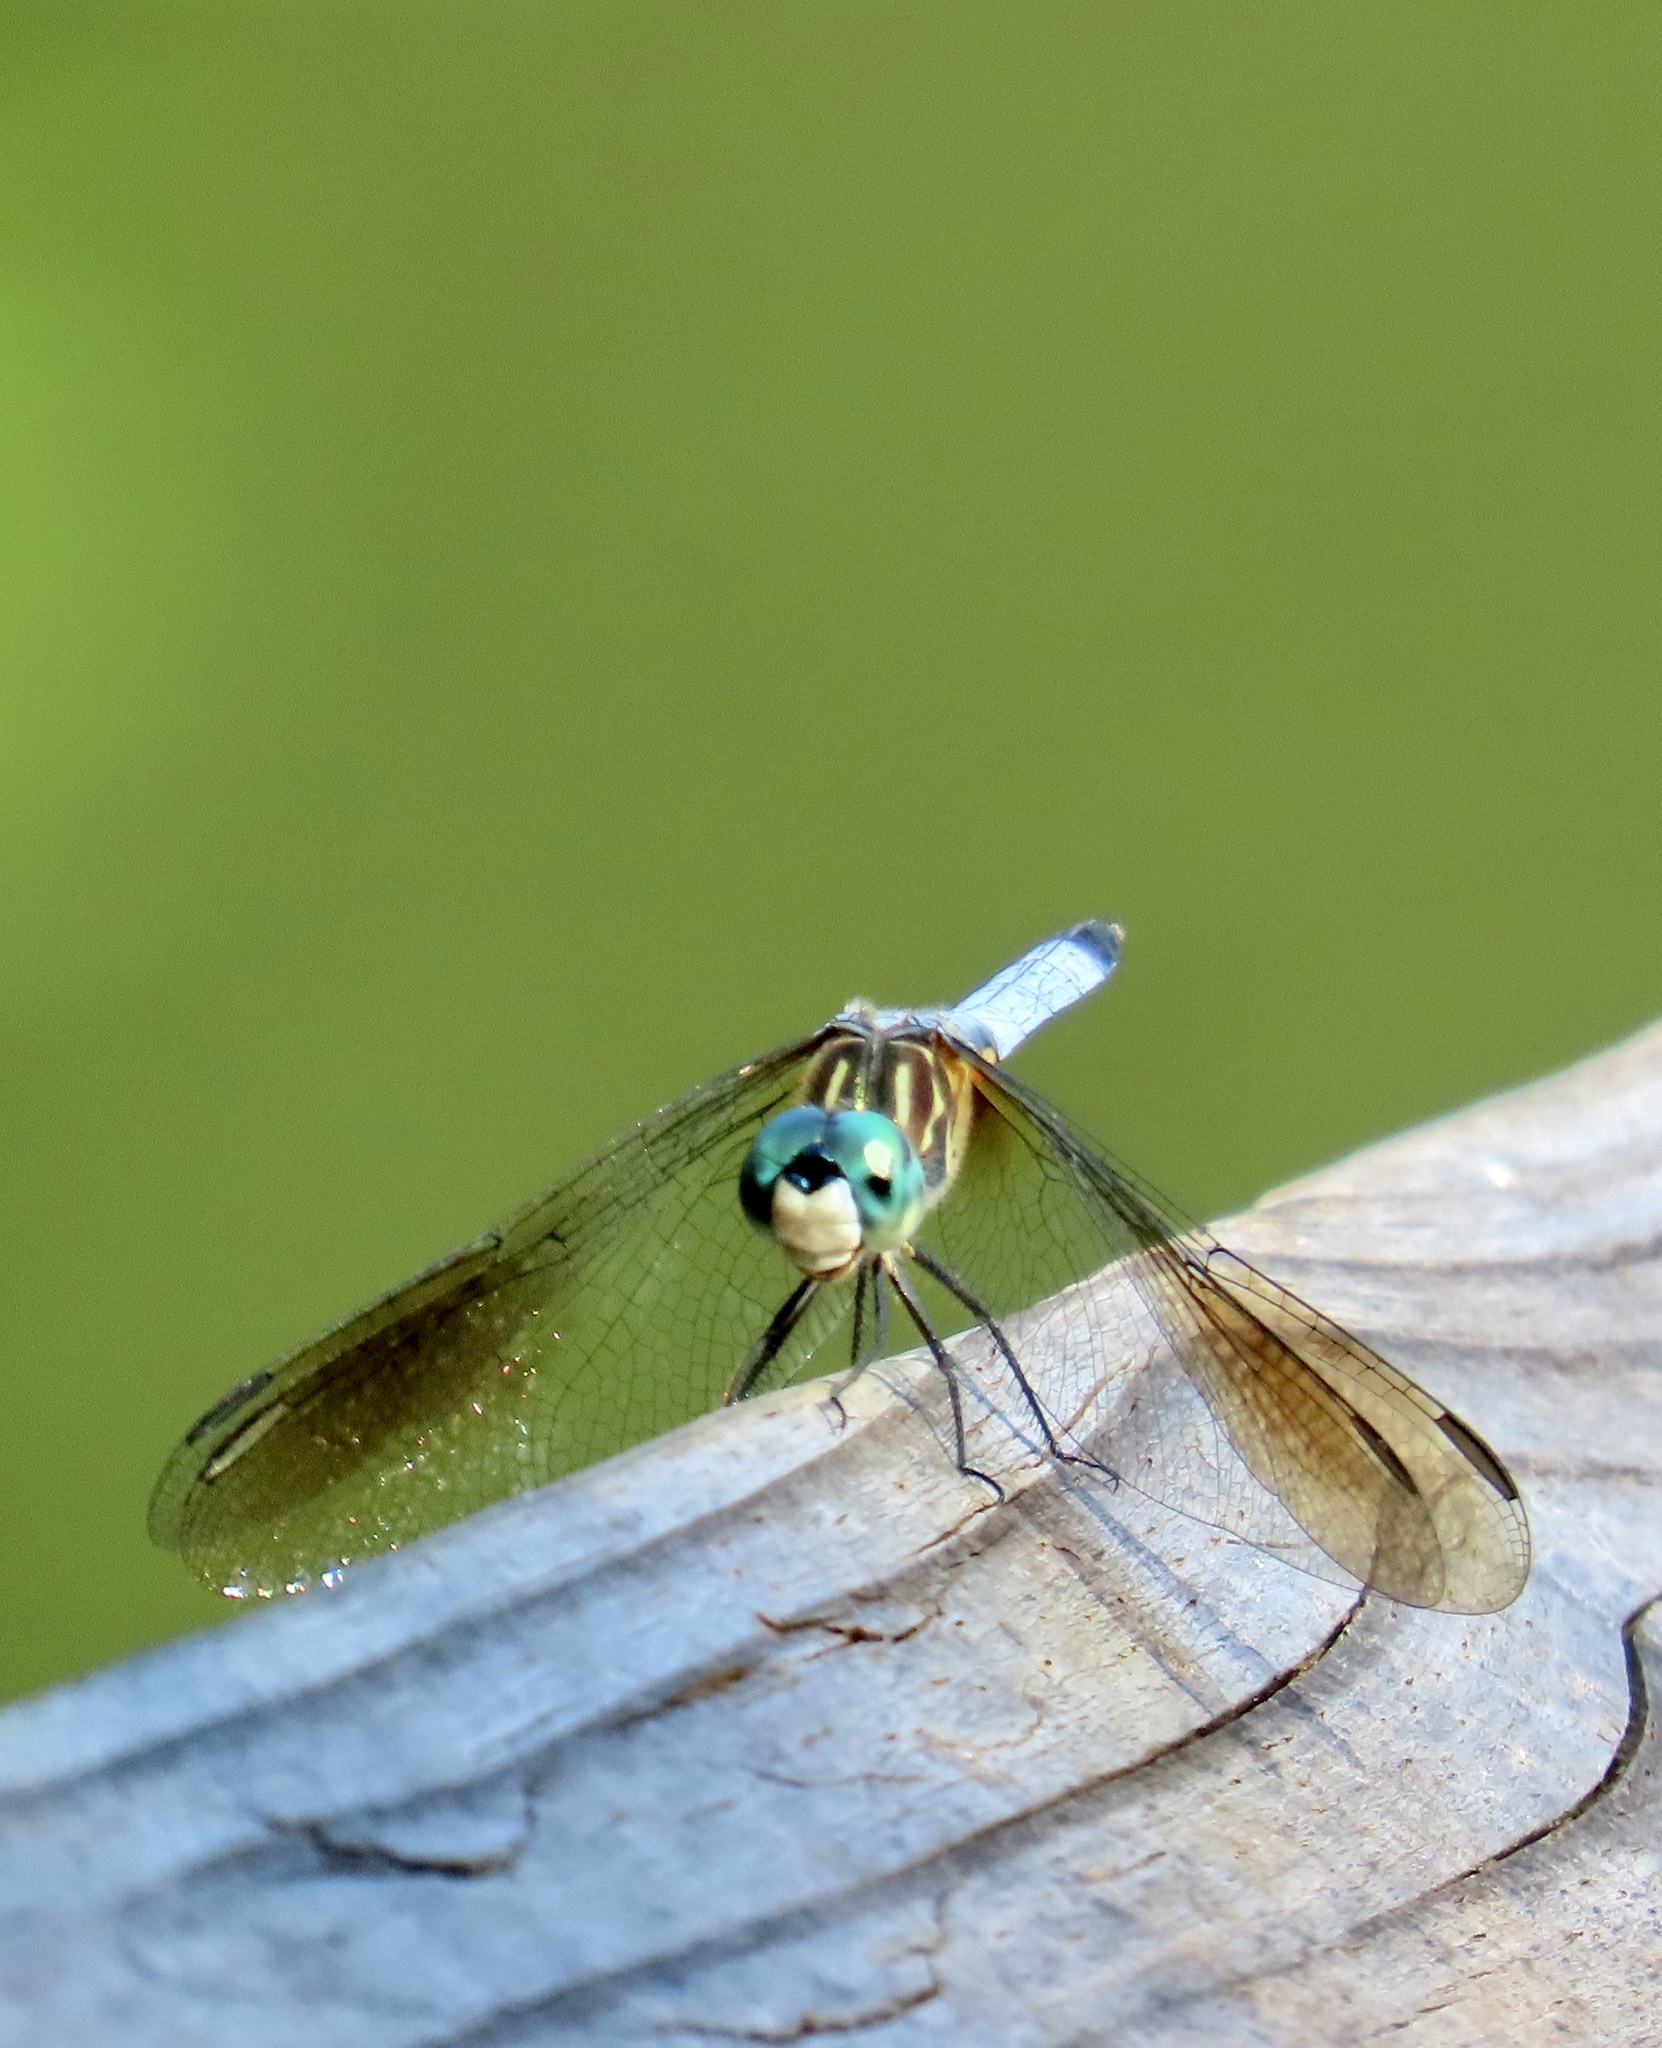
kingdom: Animalia
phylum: Arthropoda
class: Insecta
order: Odonata
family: Libellulidae
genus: Pachydiplax
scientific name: Pachydiplax longipennis
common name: Blue dasher
